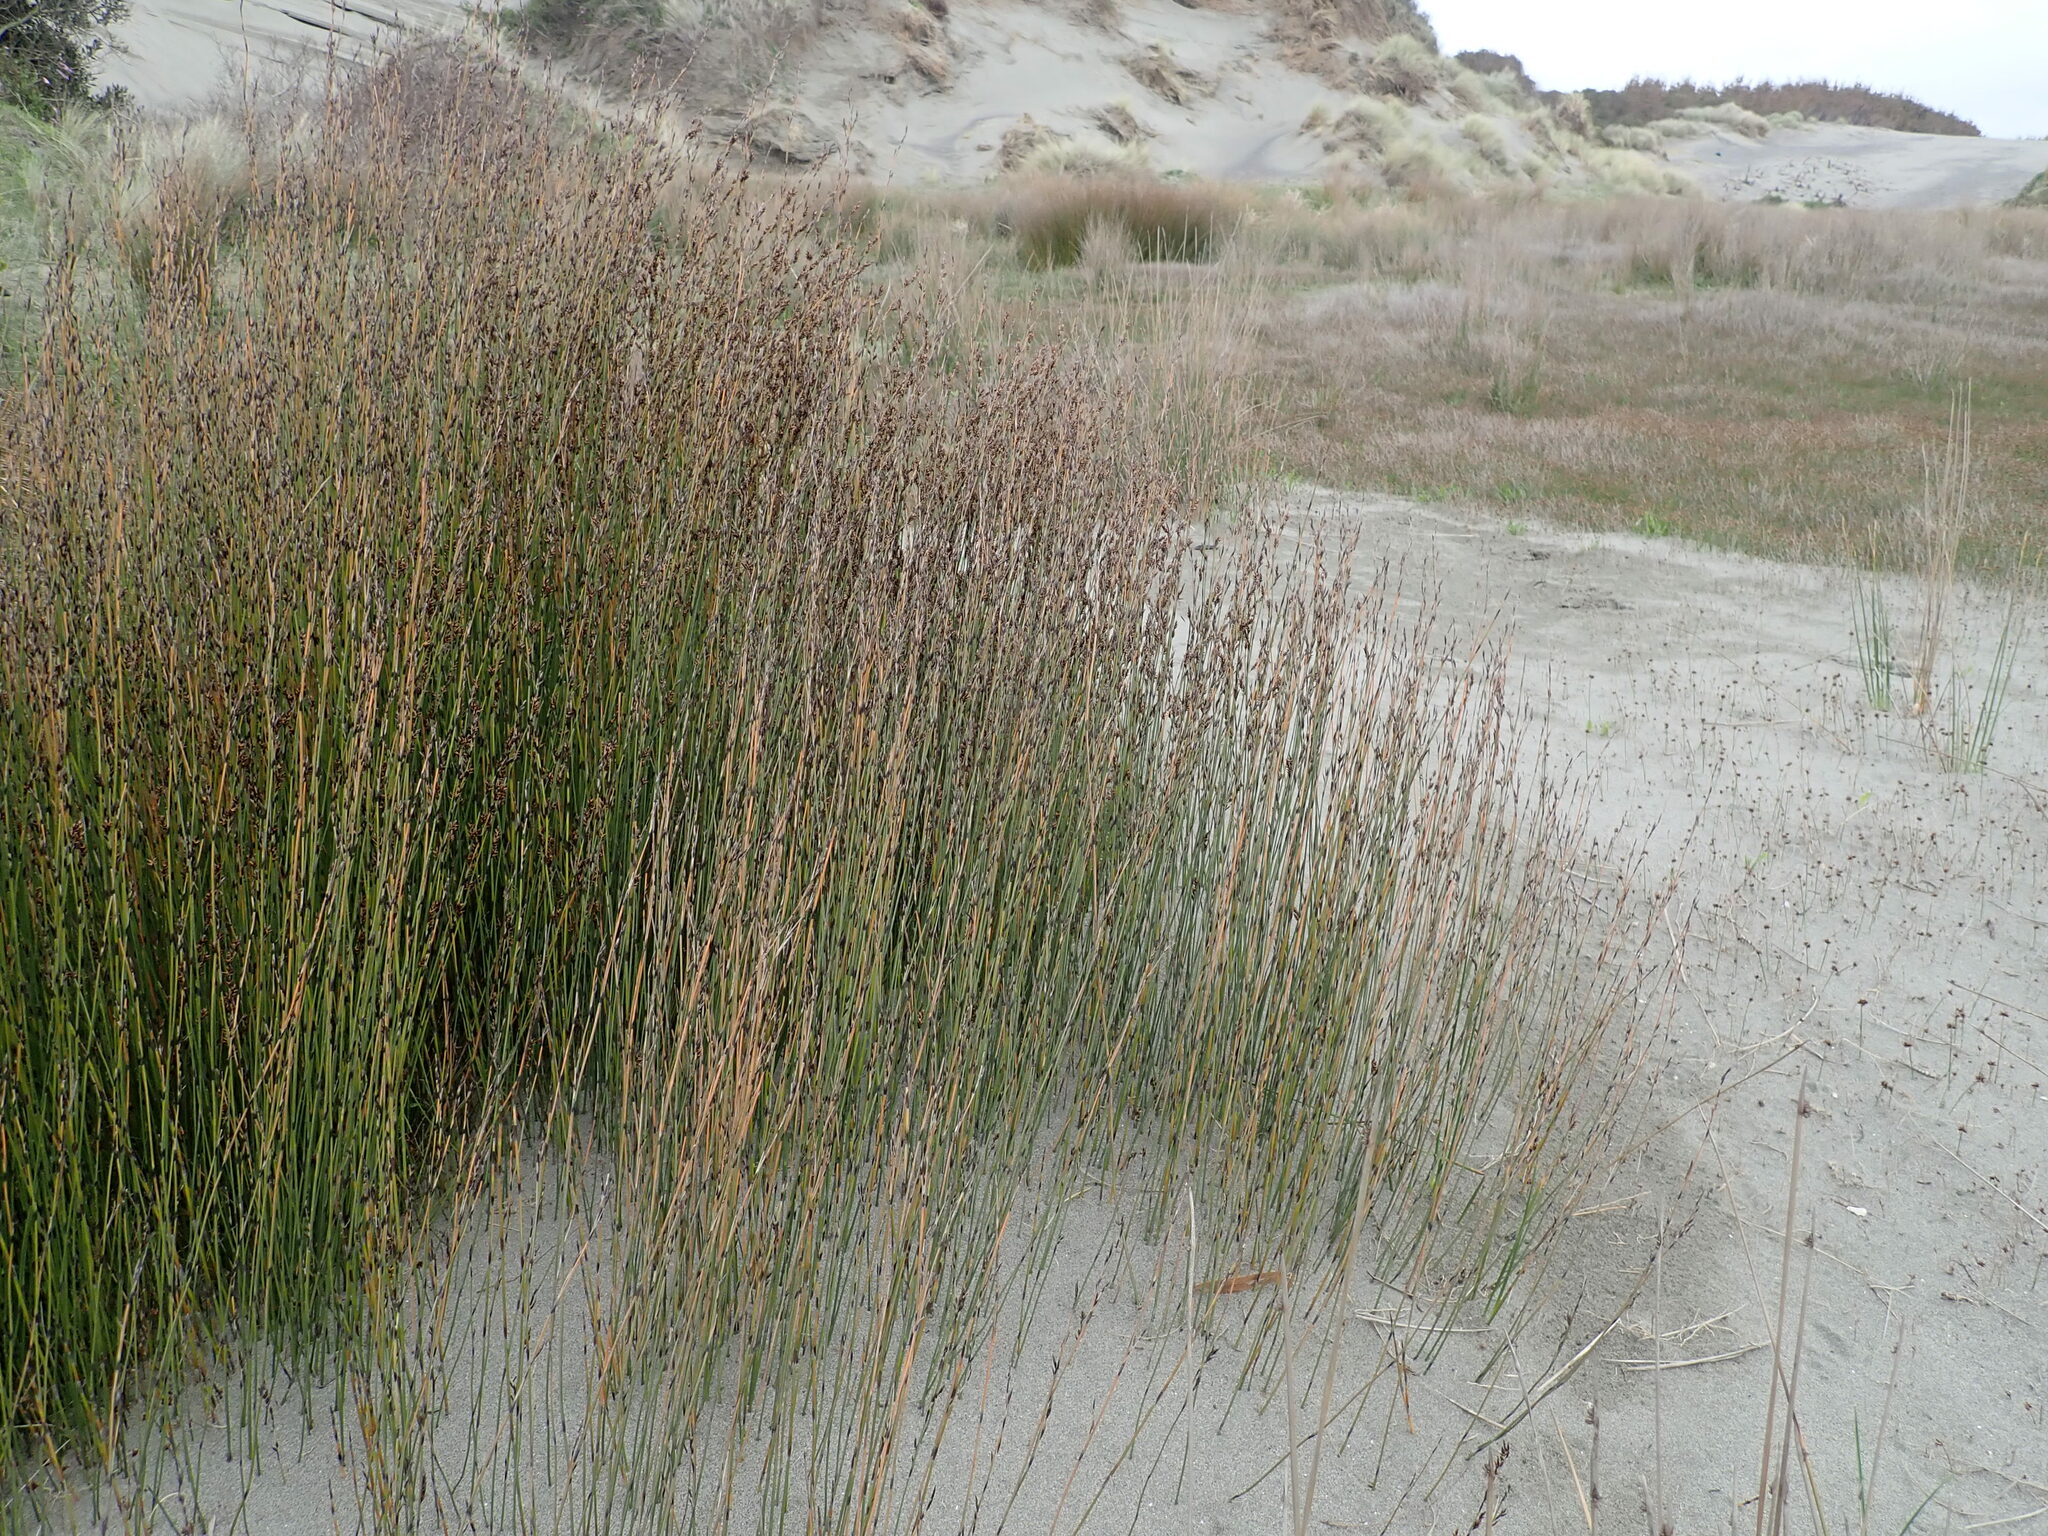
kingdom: Plantae
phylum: Tracheophyta
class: Liliopsida
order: Poales
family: Restionaceae
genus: Apodasmia
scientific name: Apodasmia similis
